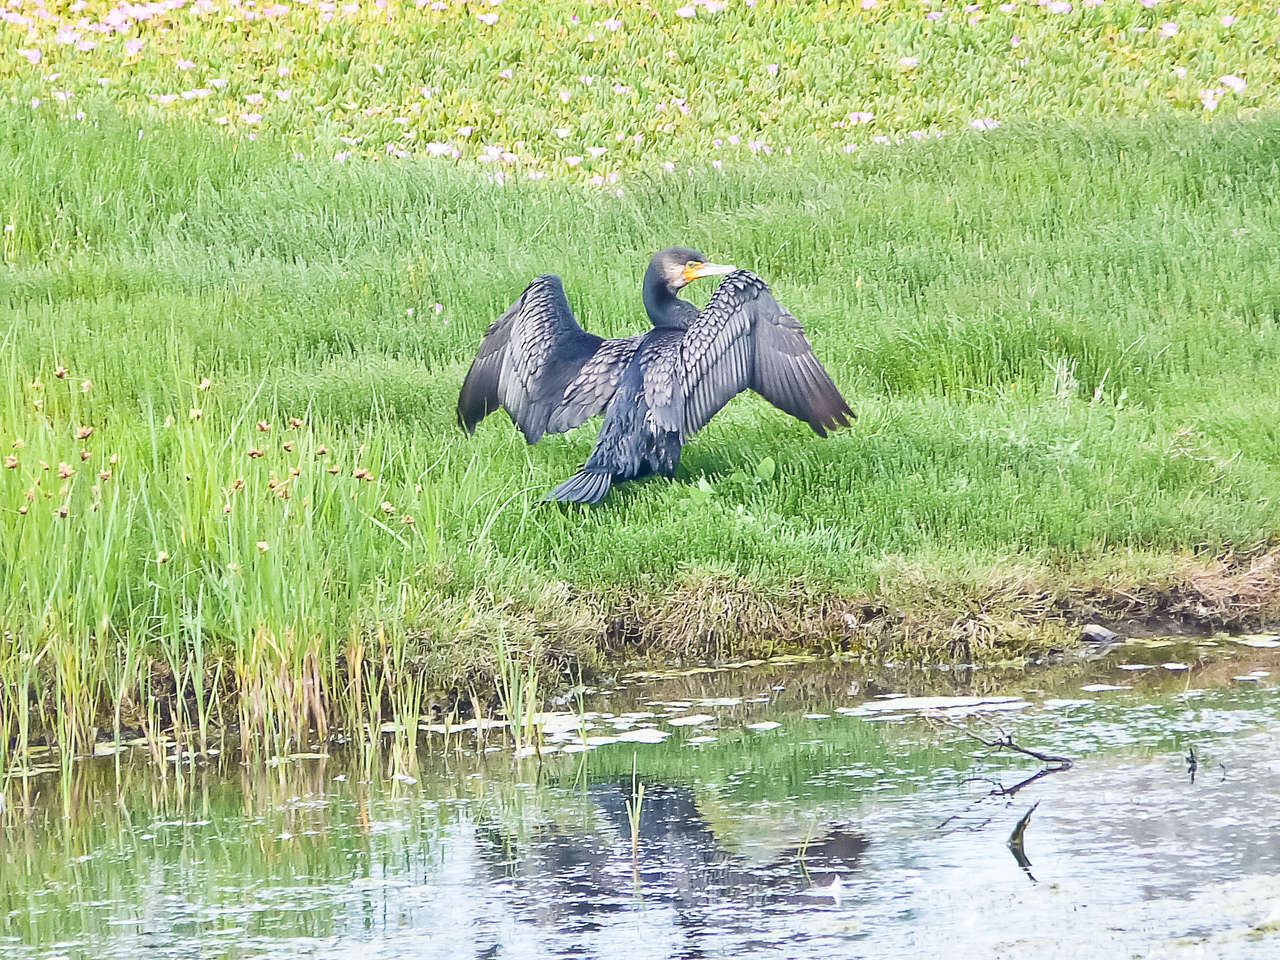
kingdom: Animalia
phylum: Chordata
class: Aves
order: Suliformes
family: Phalacrocoracidae
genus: Phalacrocorax
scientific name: Phalacrocorax carbo
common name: Great cormorant
